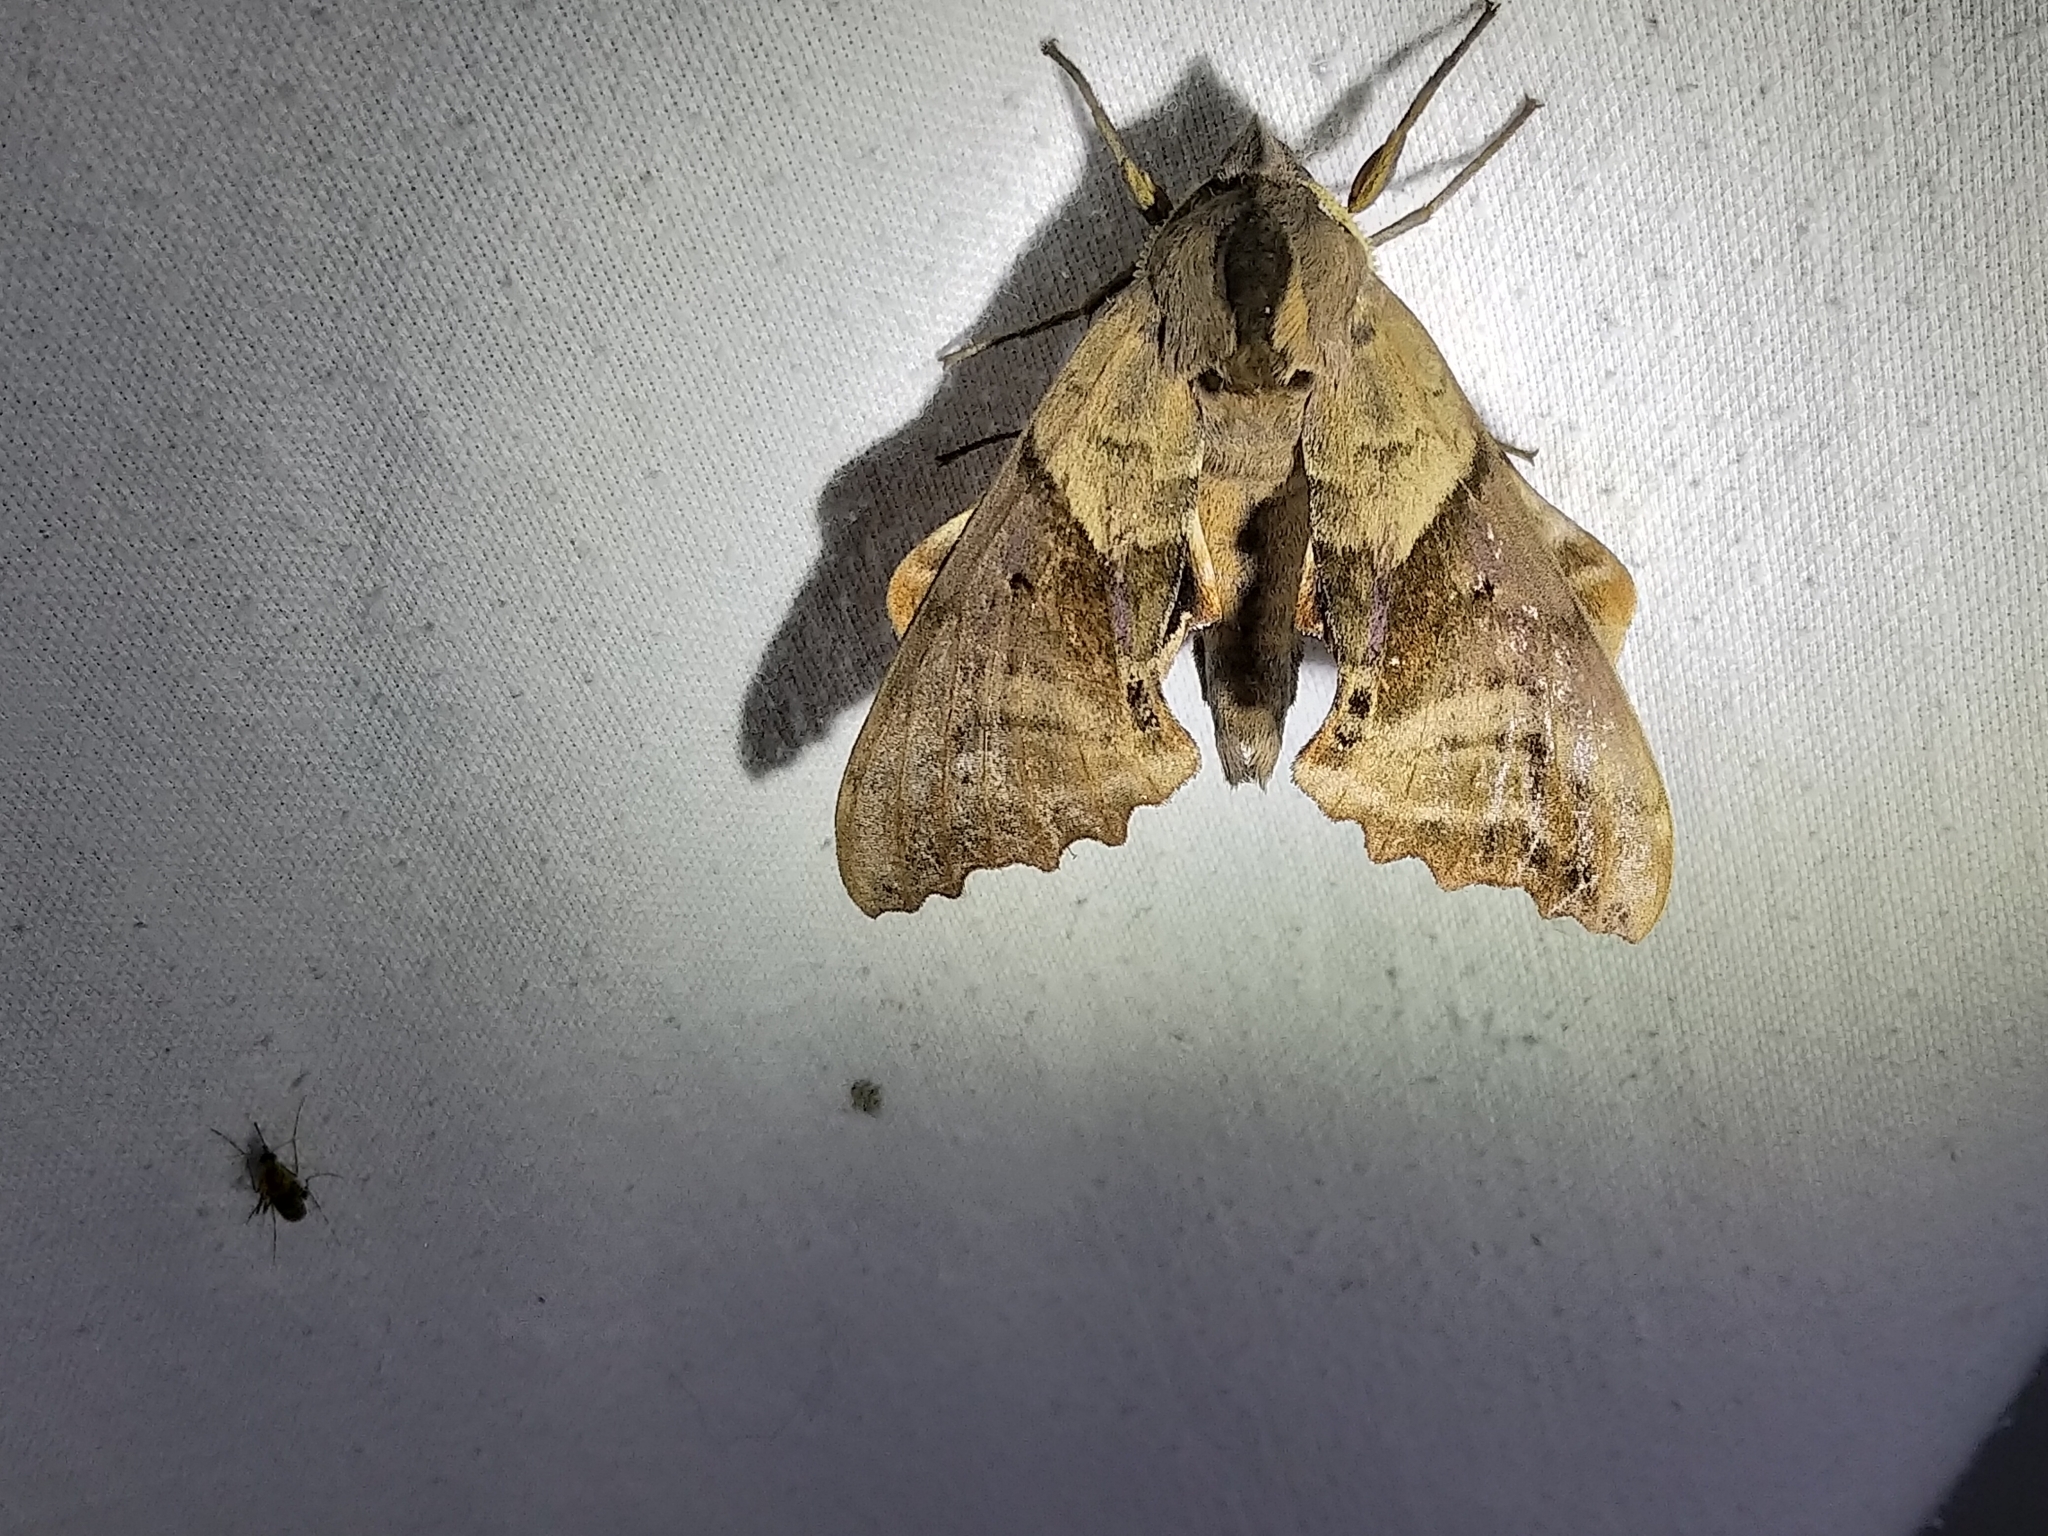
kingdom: Animalia
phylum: Arthropoda
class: Insecta
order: Lepidoptera
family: Sphingidae
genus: Paonias
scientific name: Paonias excaecata
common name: Blind-eyed sphinx
